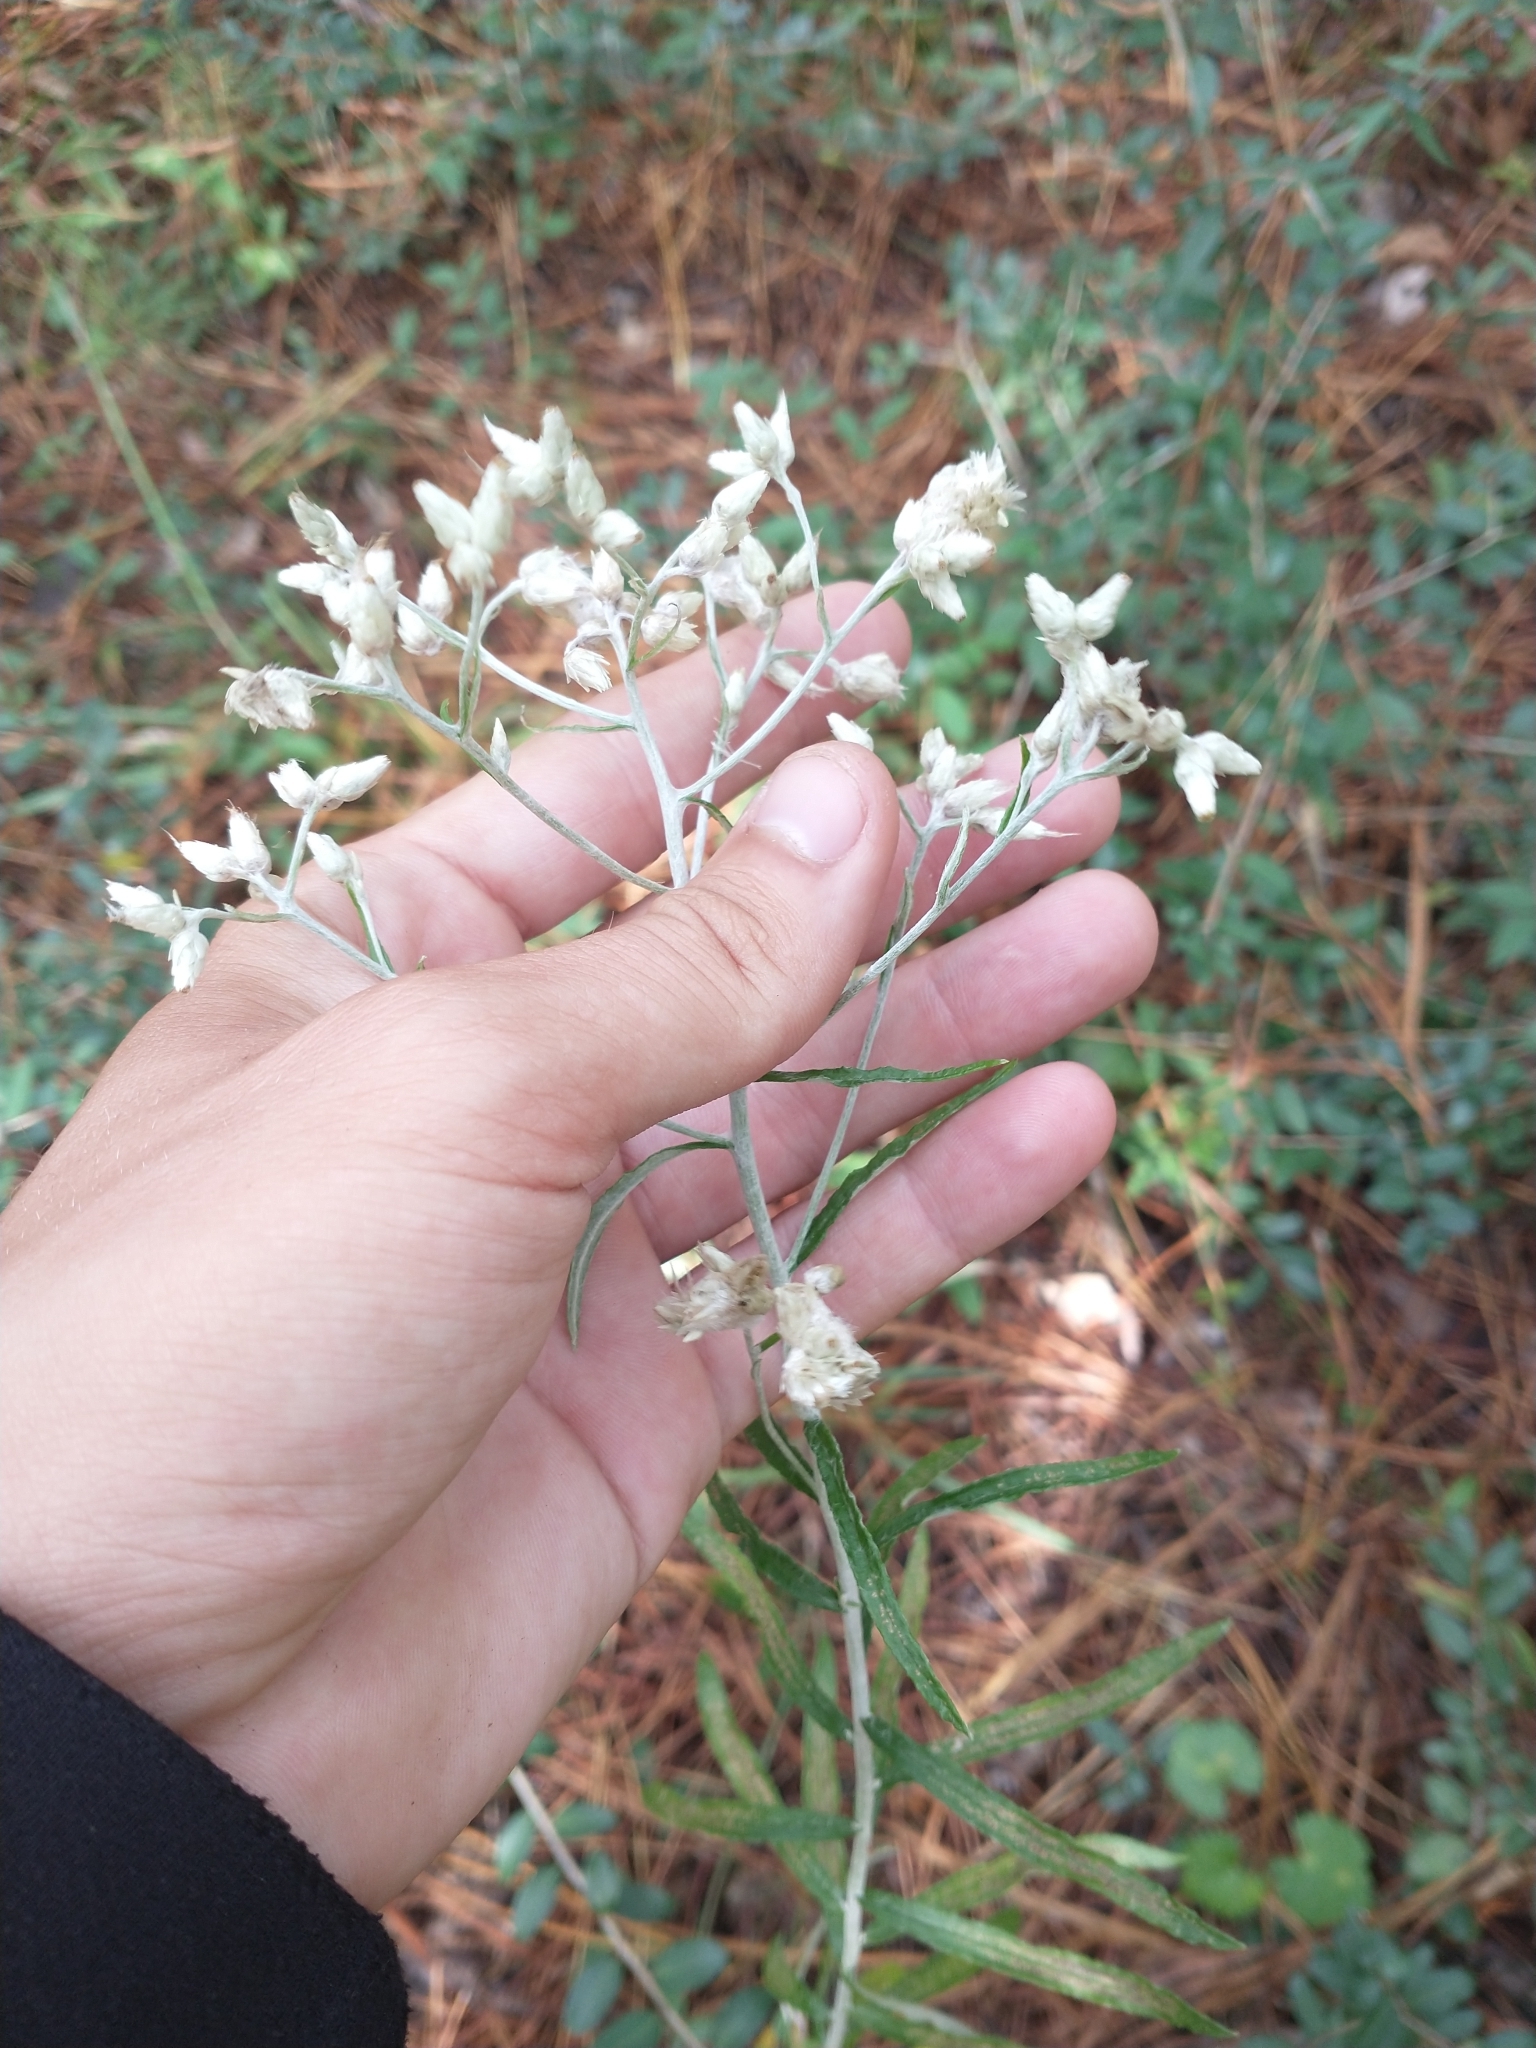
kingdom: Plantae
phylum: Tracheophyta
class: Magnoliopsida
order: Asterales
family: Asteraceae
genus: Pseudognaphalium
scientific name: Pseudognaphalium obtusifolium
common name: Eastern rabbit-tobacco
